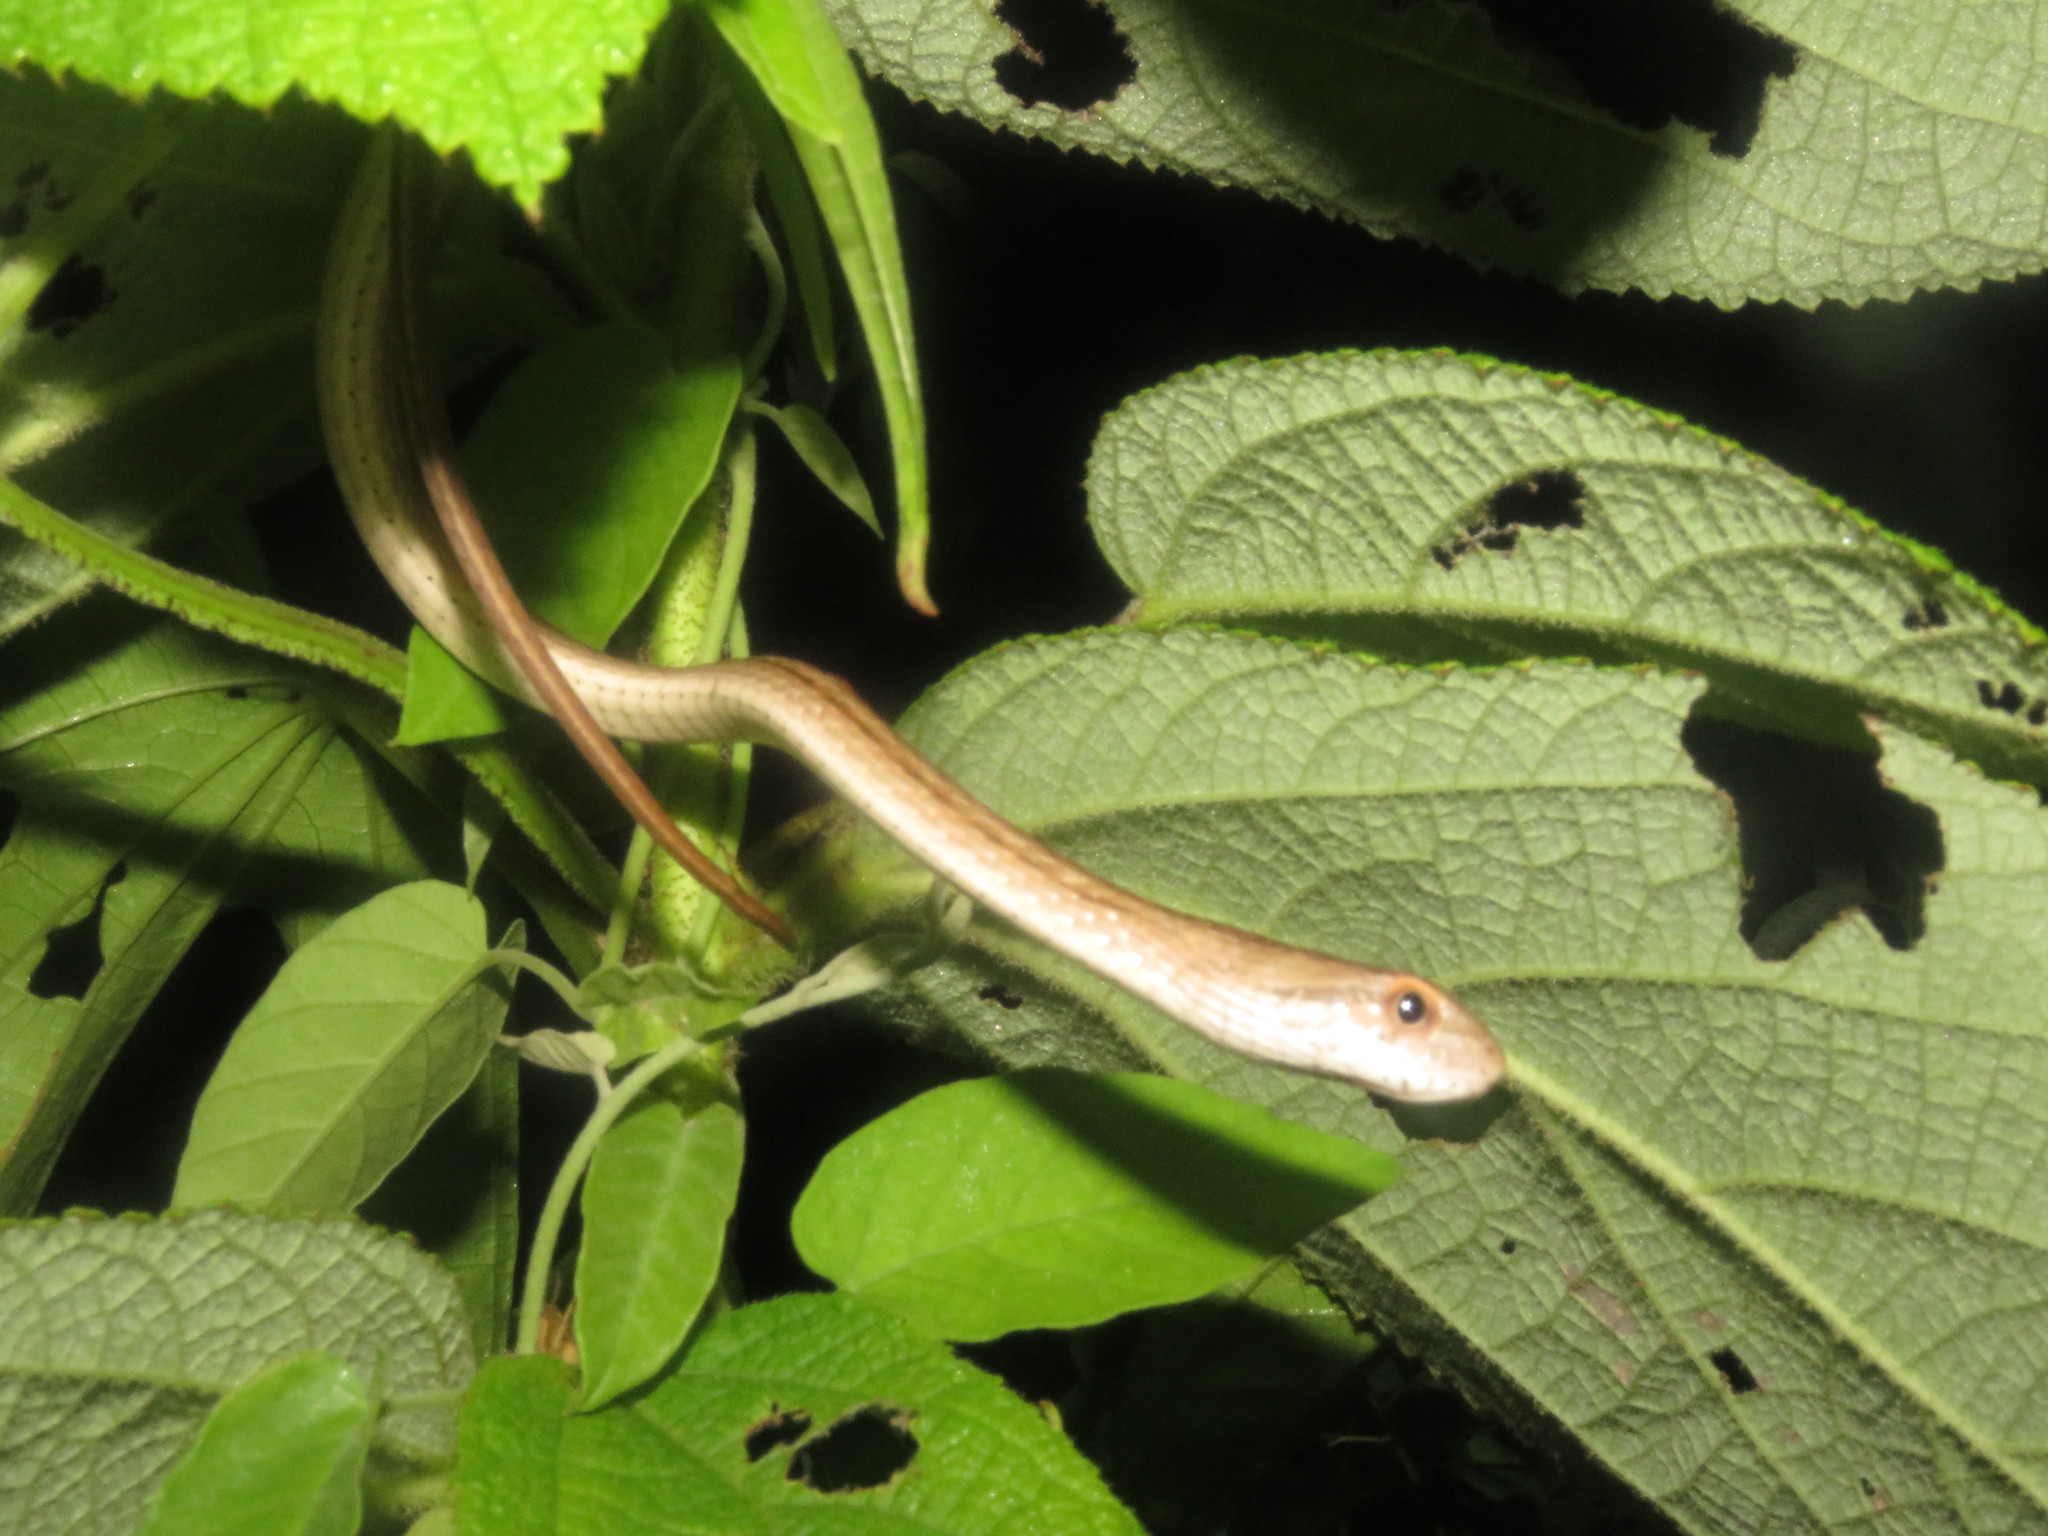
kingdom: Animalia
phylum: Chordata
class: Squamata
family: Colubridae
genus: Thamnodynastes
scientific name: Thamnodynastes pallidus
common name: Amazon coastal house snake
